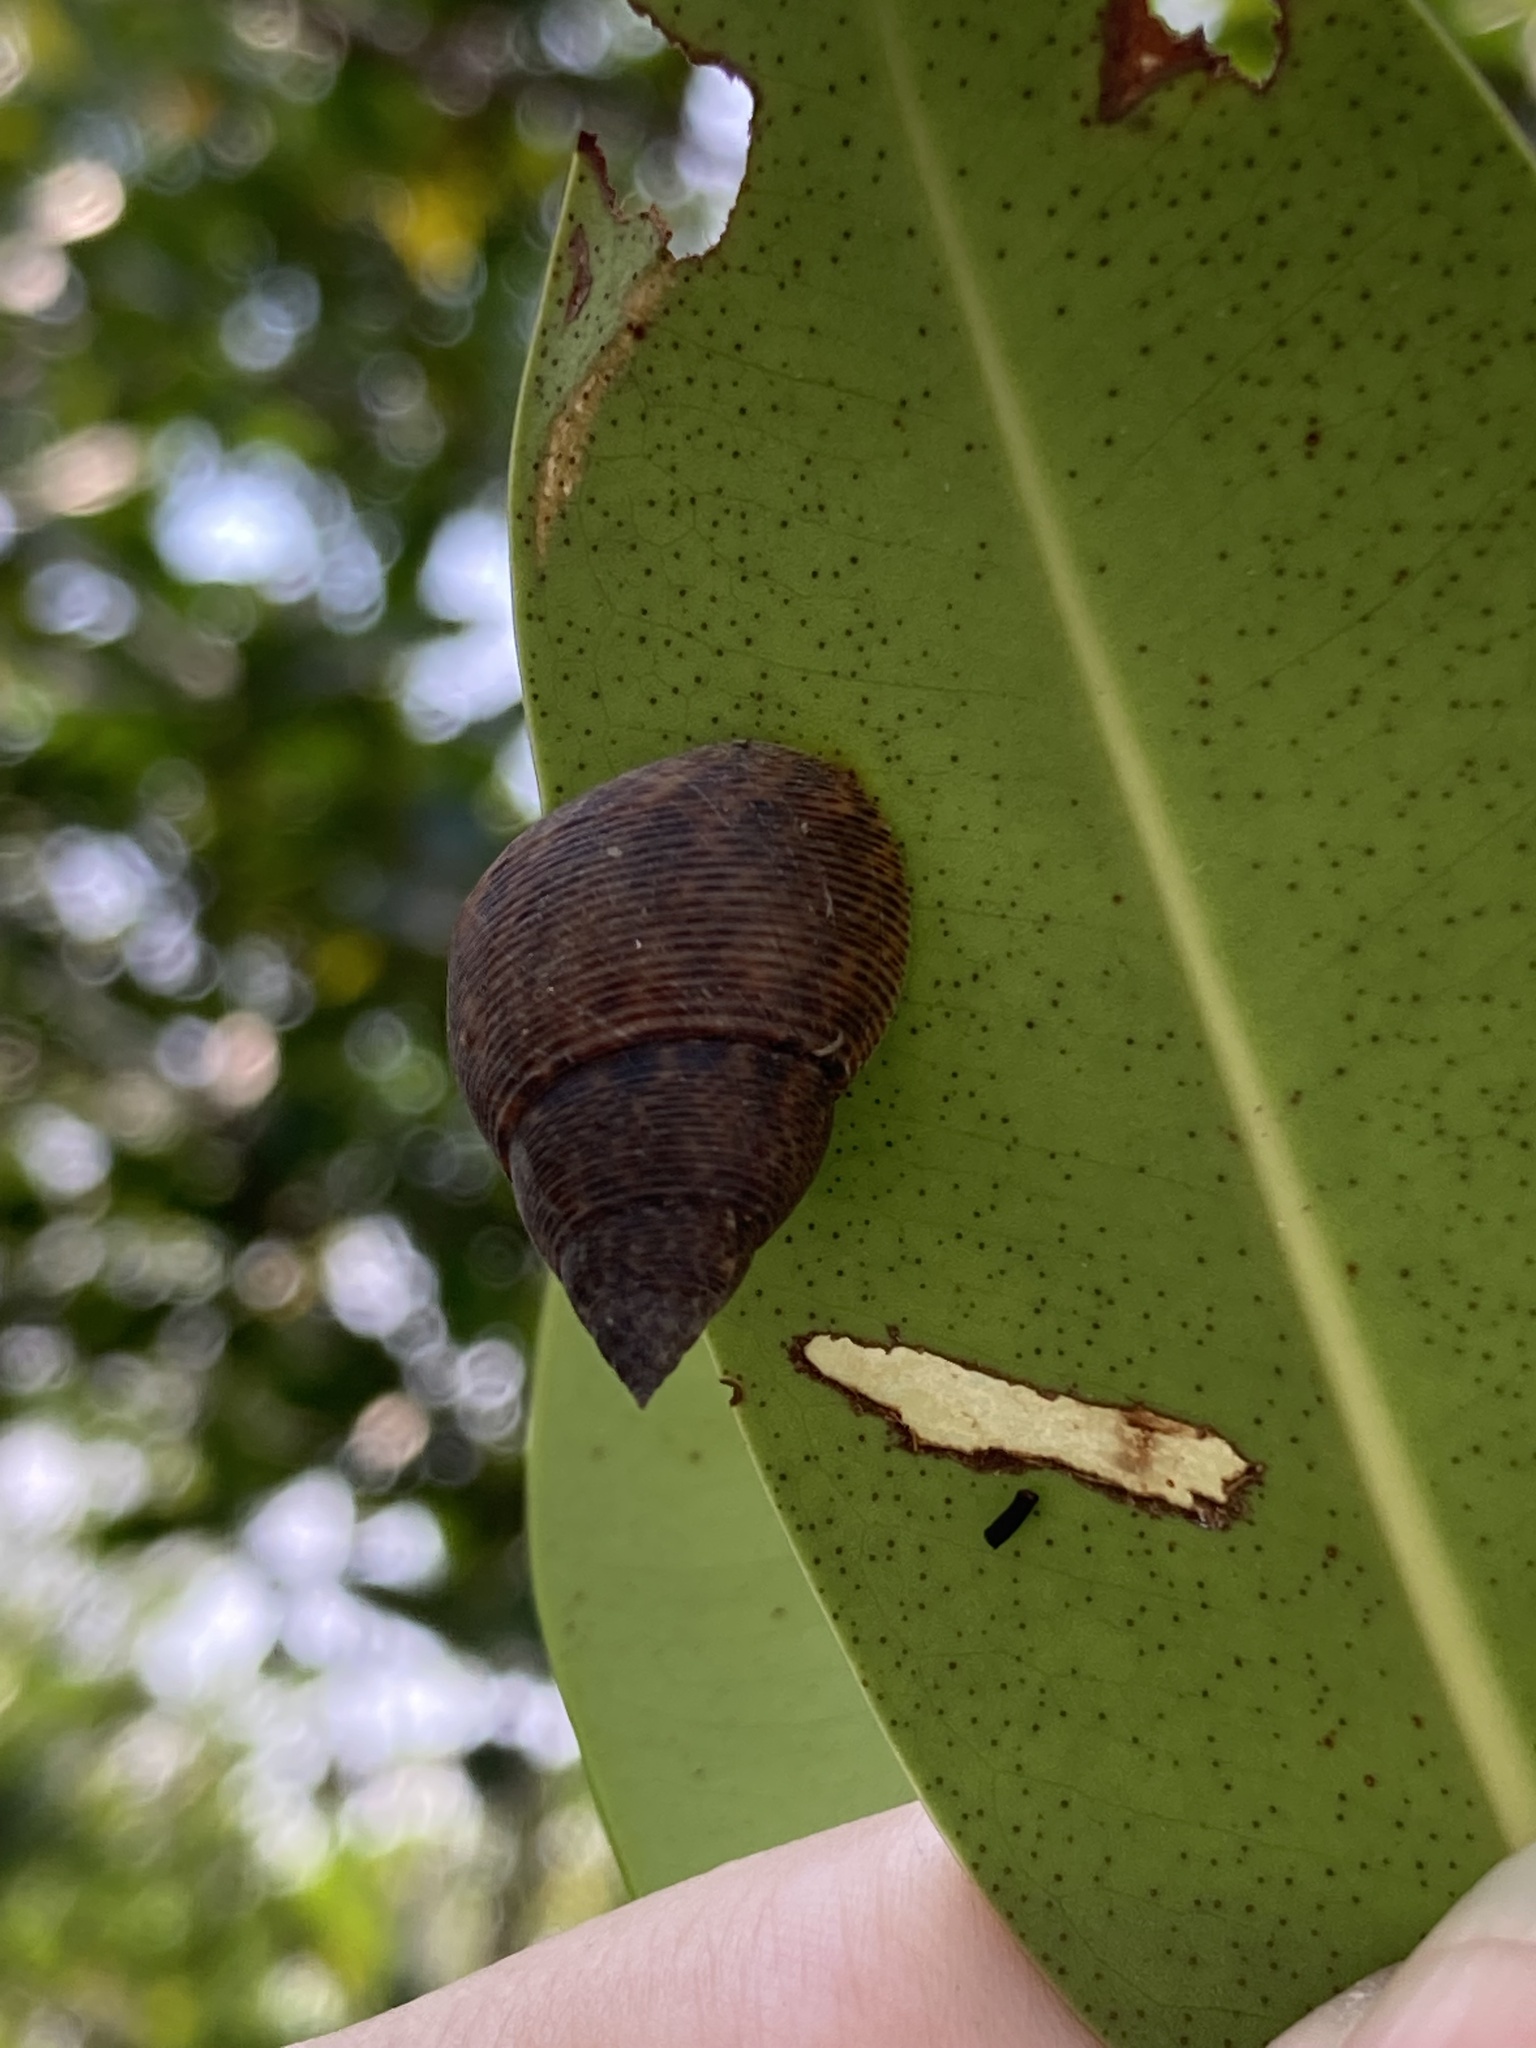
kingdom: Animalia
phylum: Mollusca
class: Gastropoda
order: Littorinimorpha
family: Littorinidae
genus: Littoraria
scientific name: Littoraria angulifera
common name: Mangrove periwinkle
